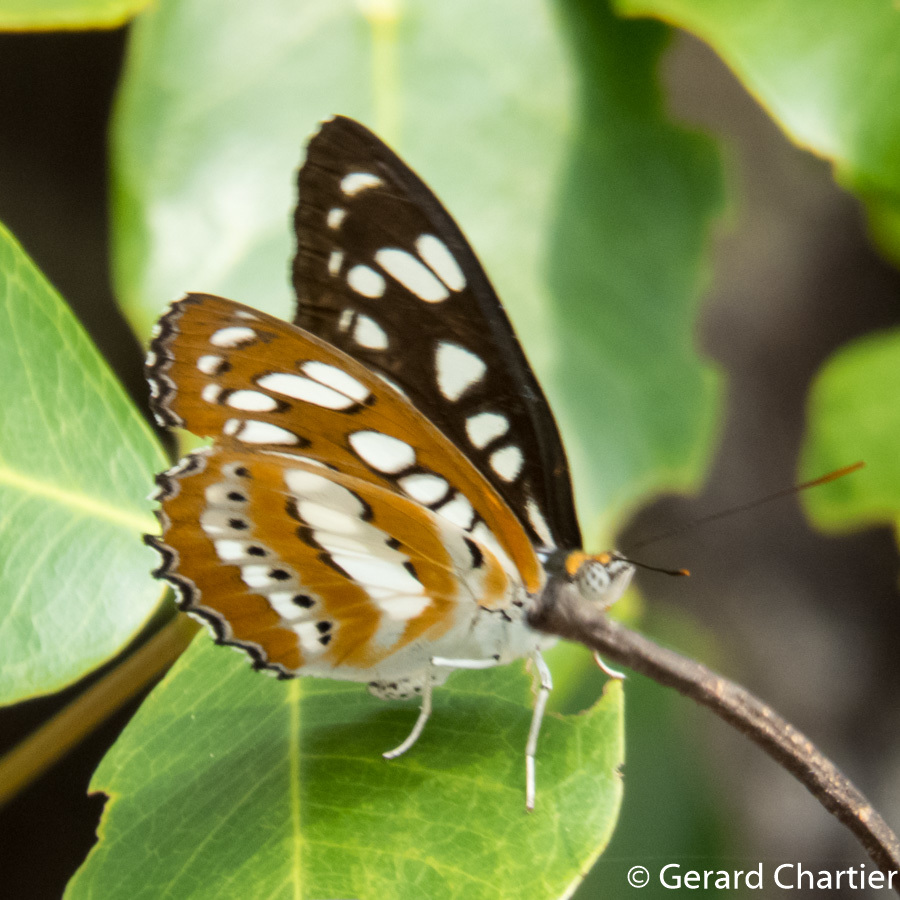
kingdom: Animalia
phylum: Arthropoda
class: Insecta
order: Lepidoptera
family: Nymphalidae
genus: Parathyma
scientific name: Parathyma perius
